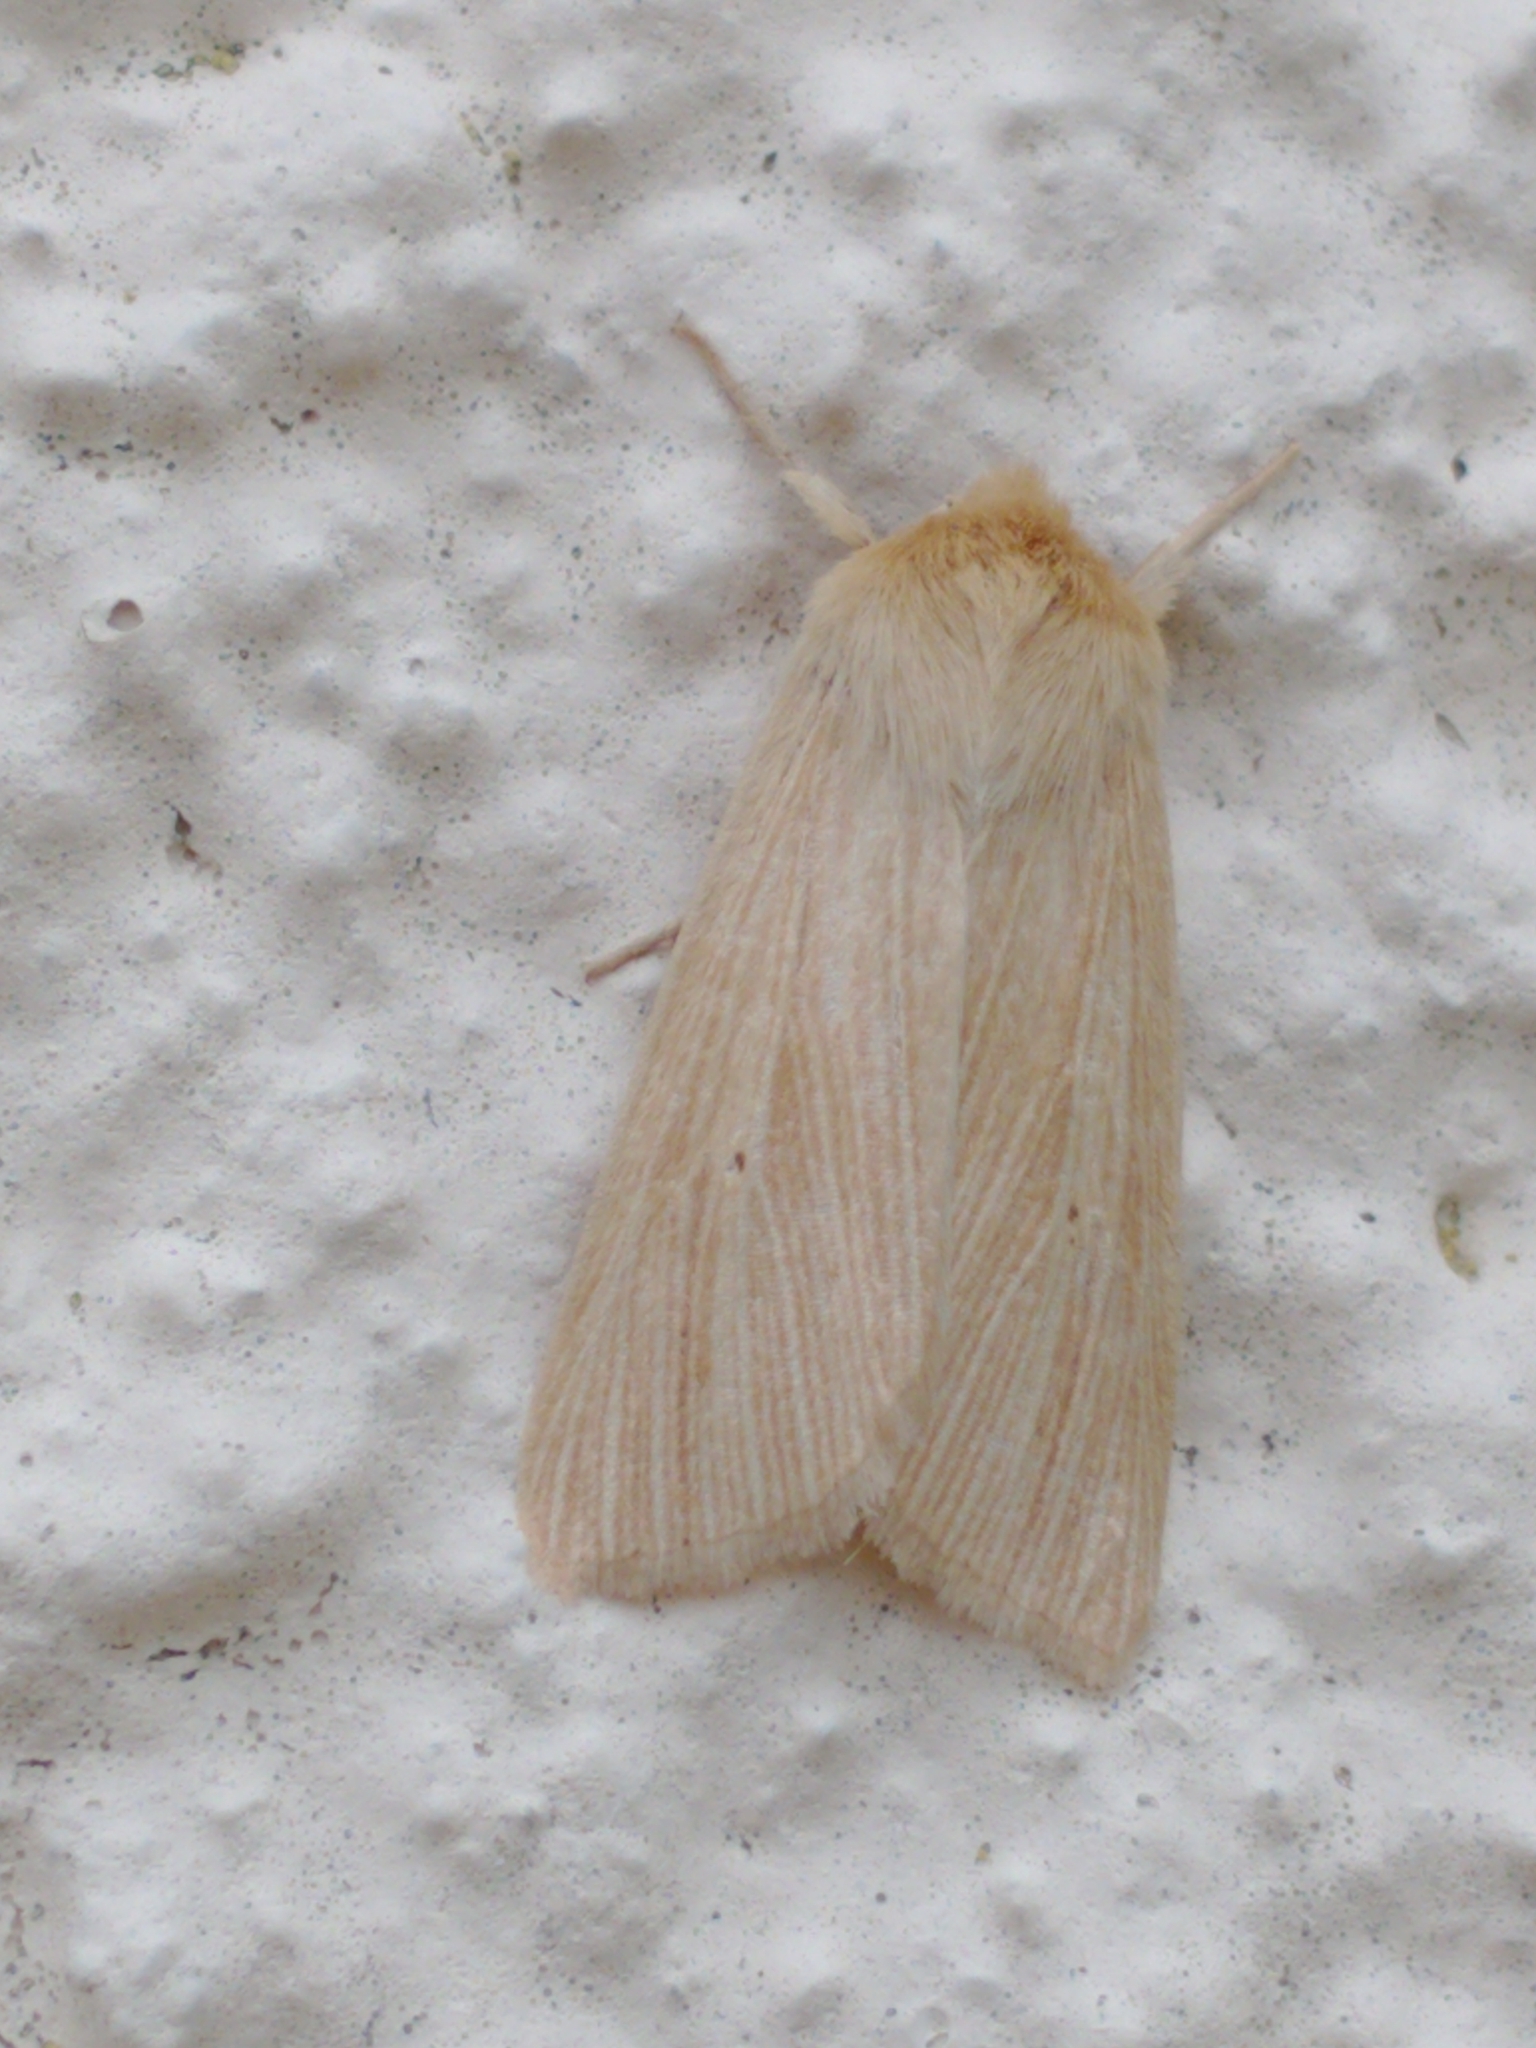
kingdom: Animalia
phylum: Arthropoda
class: Insecta
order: Lepidoptera
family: Noctuidae
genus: Mythimna
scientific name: Mythimna pallens
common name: Common wainscot
